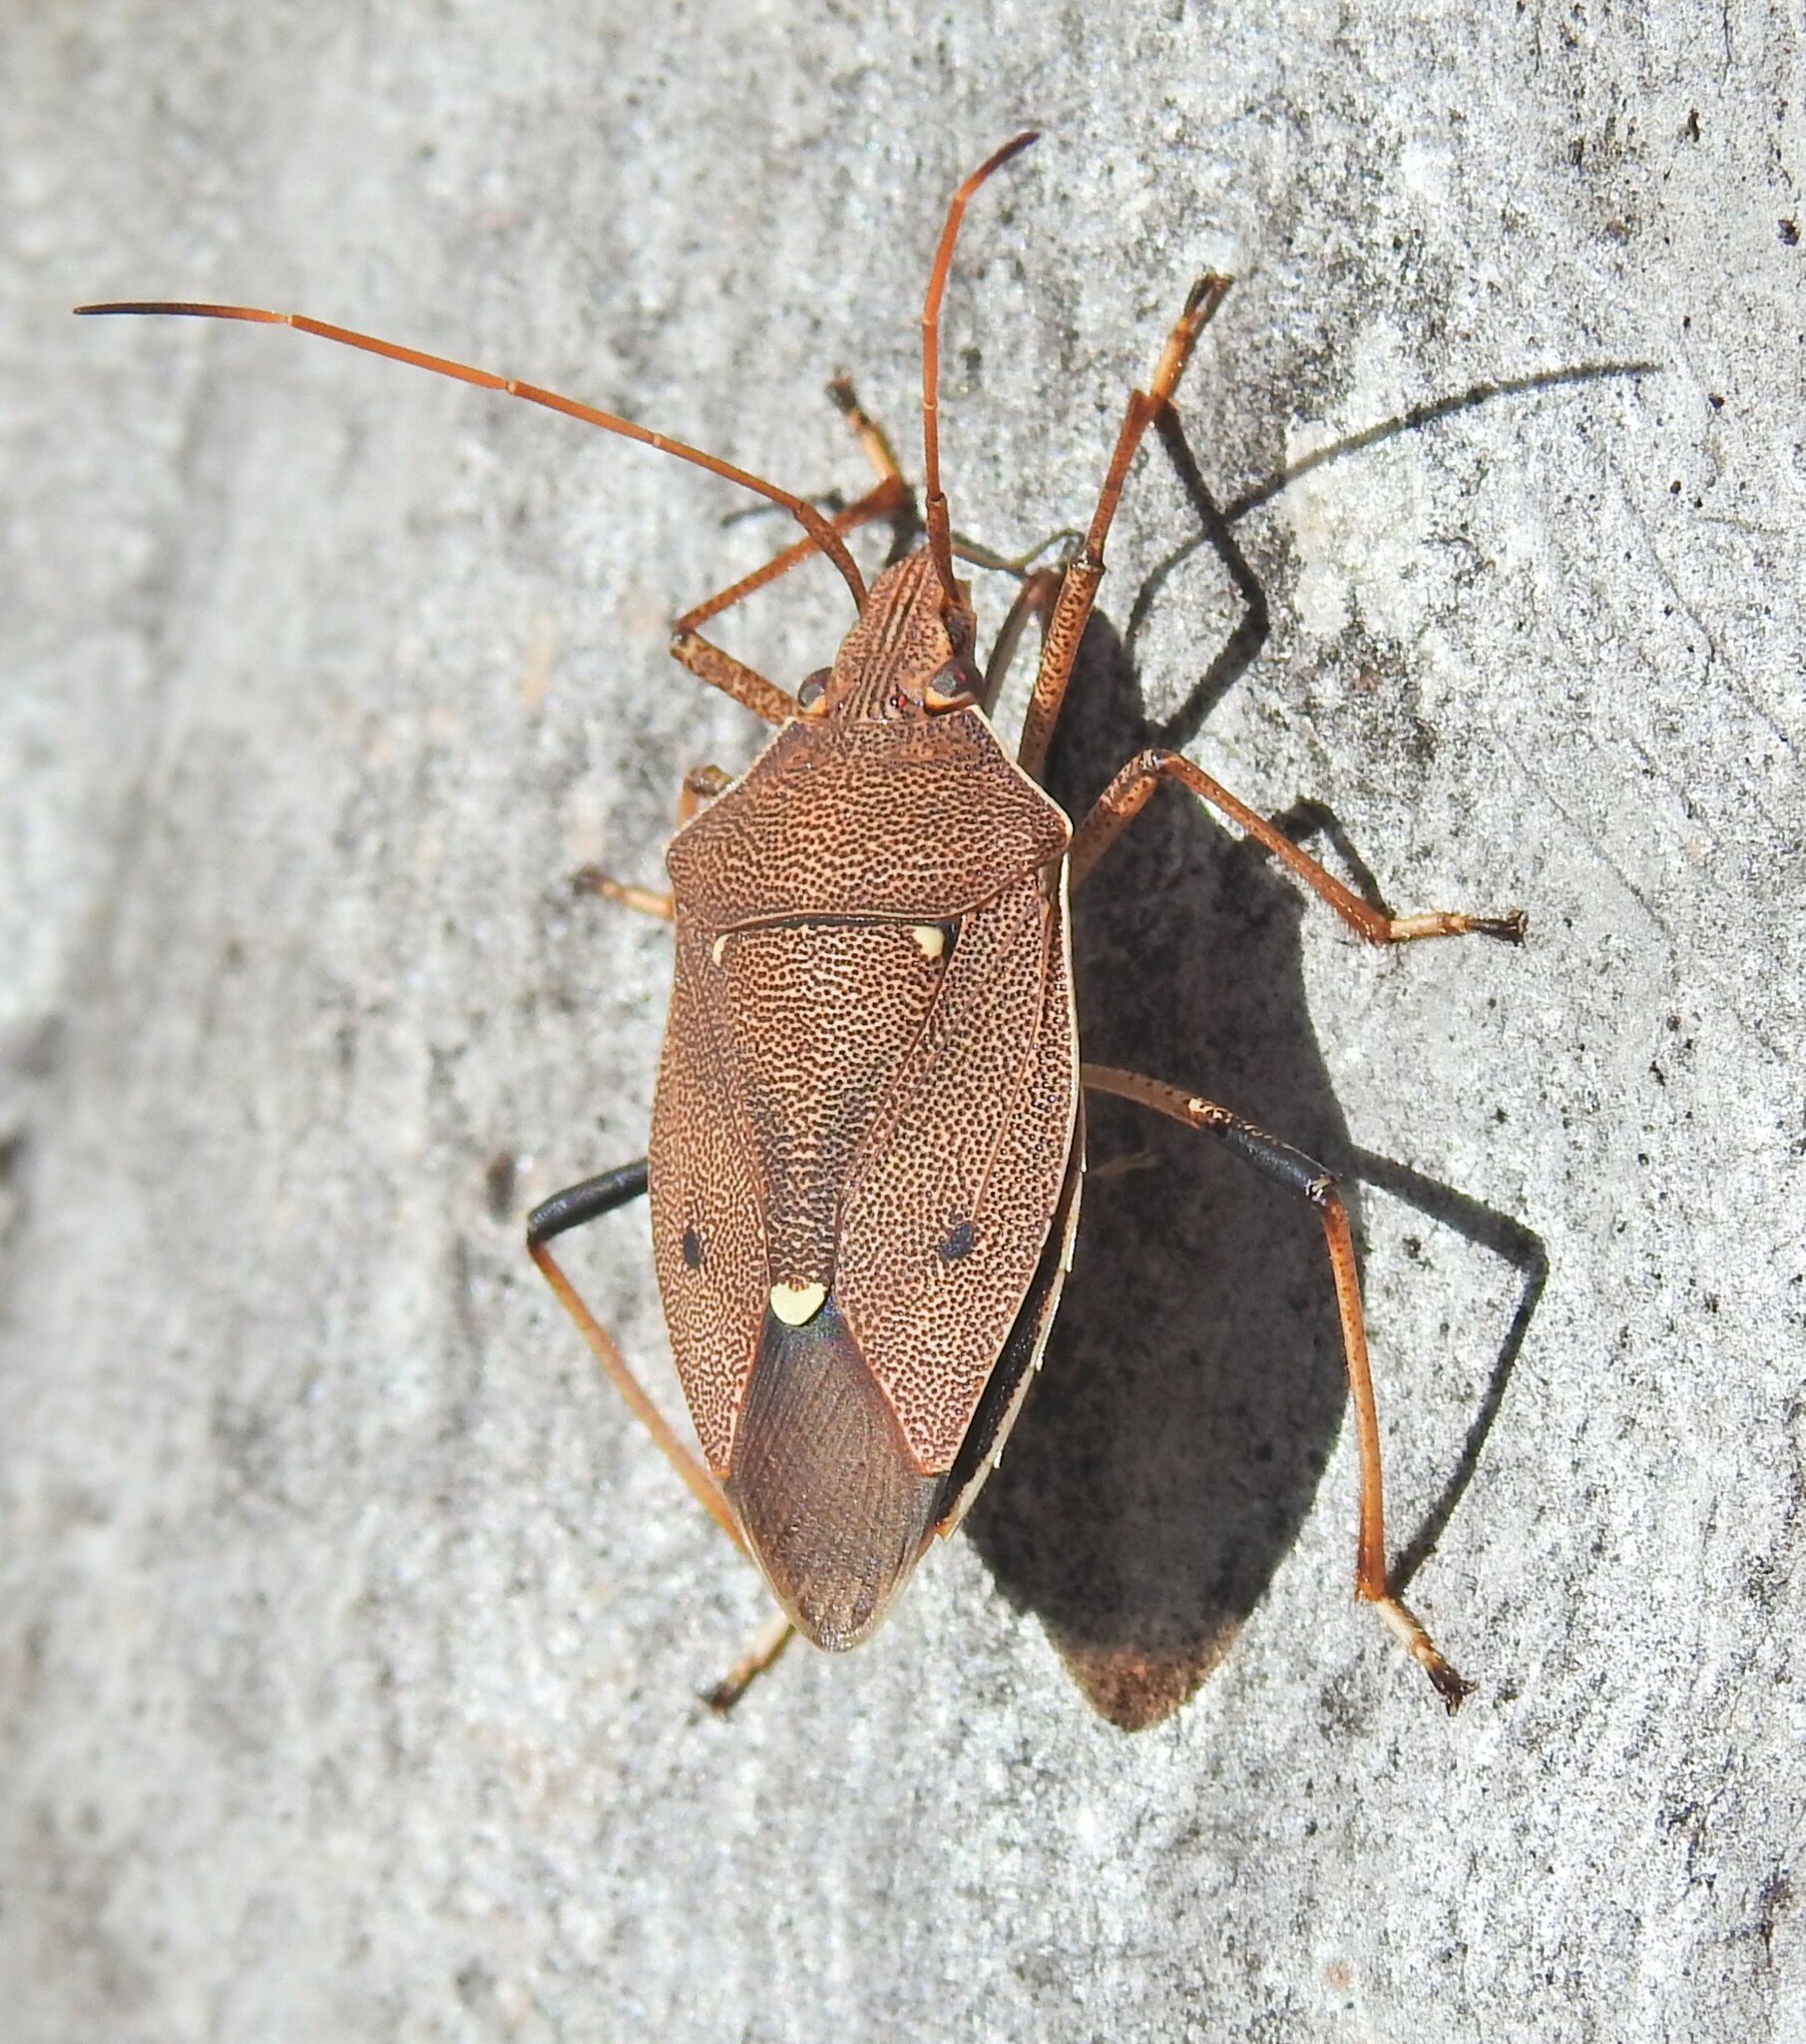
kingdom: Animalia
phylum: Arthropoda
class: Insecta
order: Hemiptera
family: Pentatomidae
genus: Poecilometis
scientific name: Poecilometis
